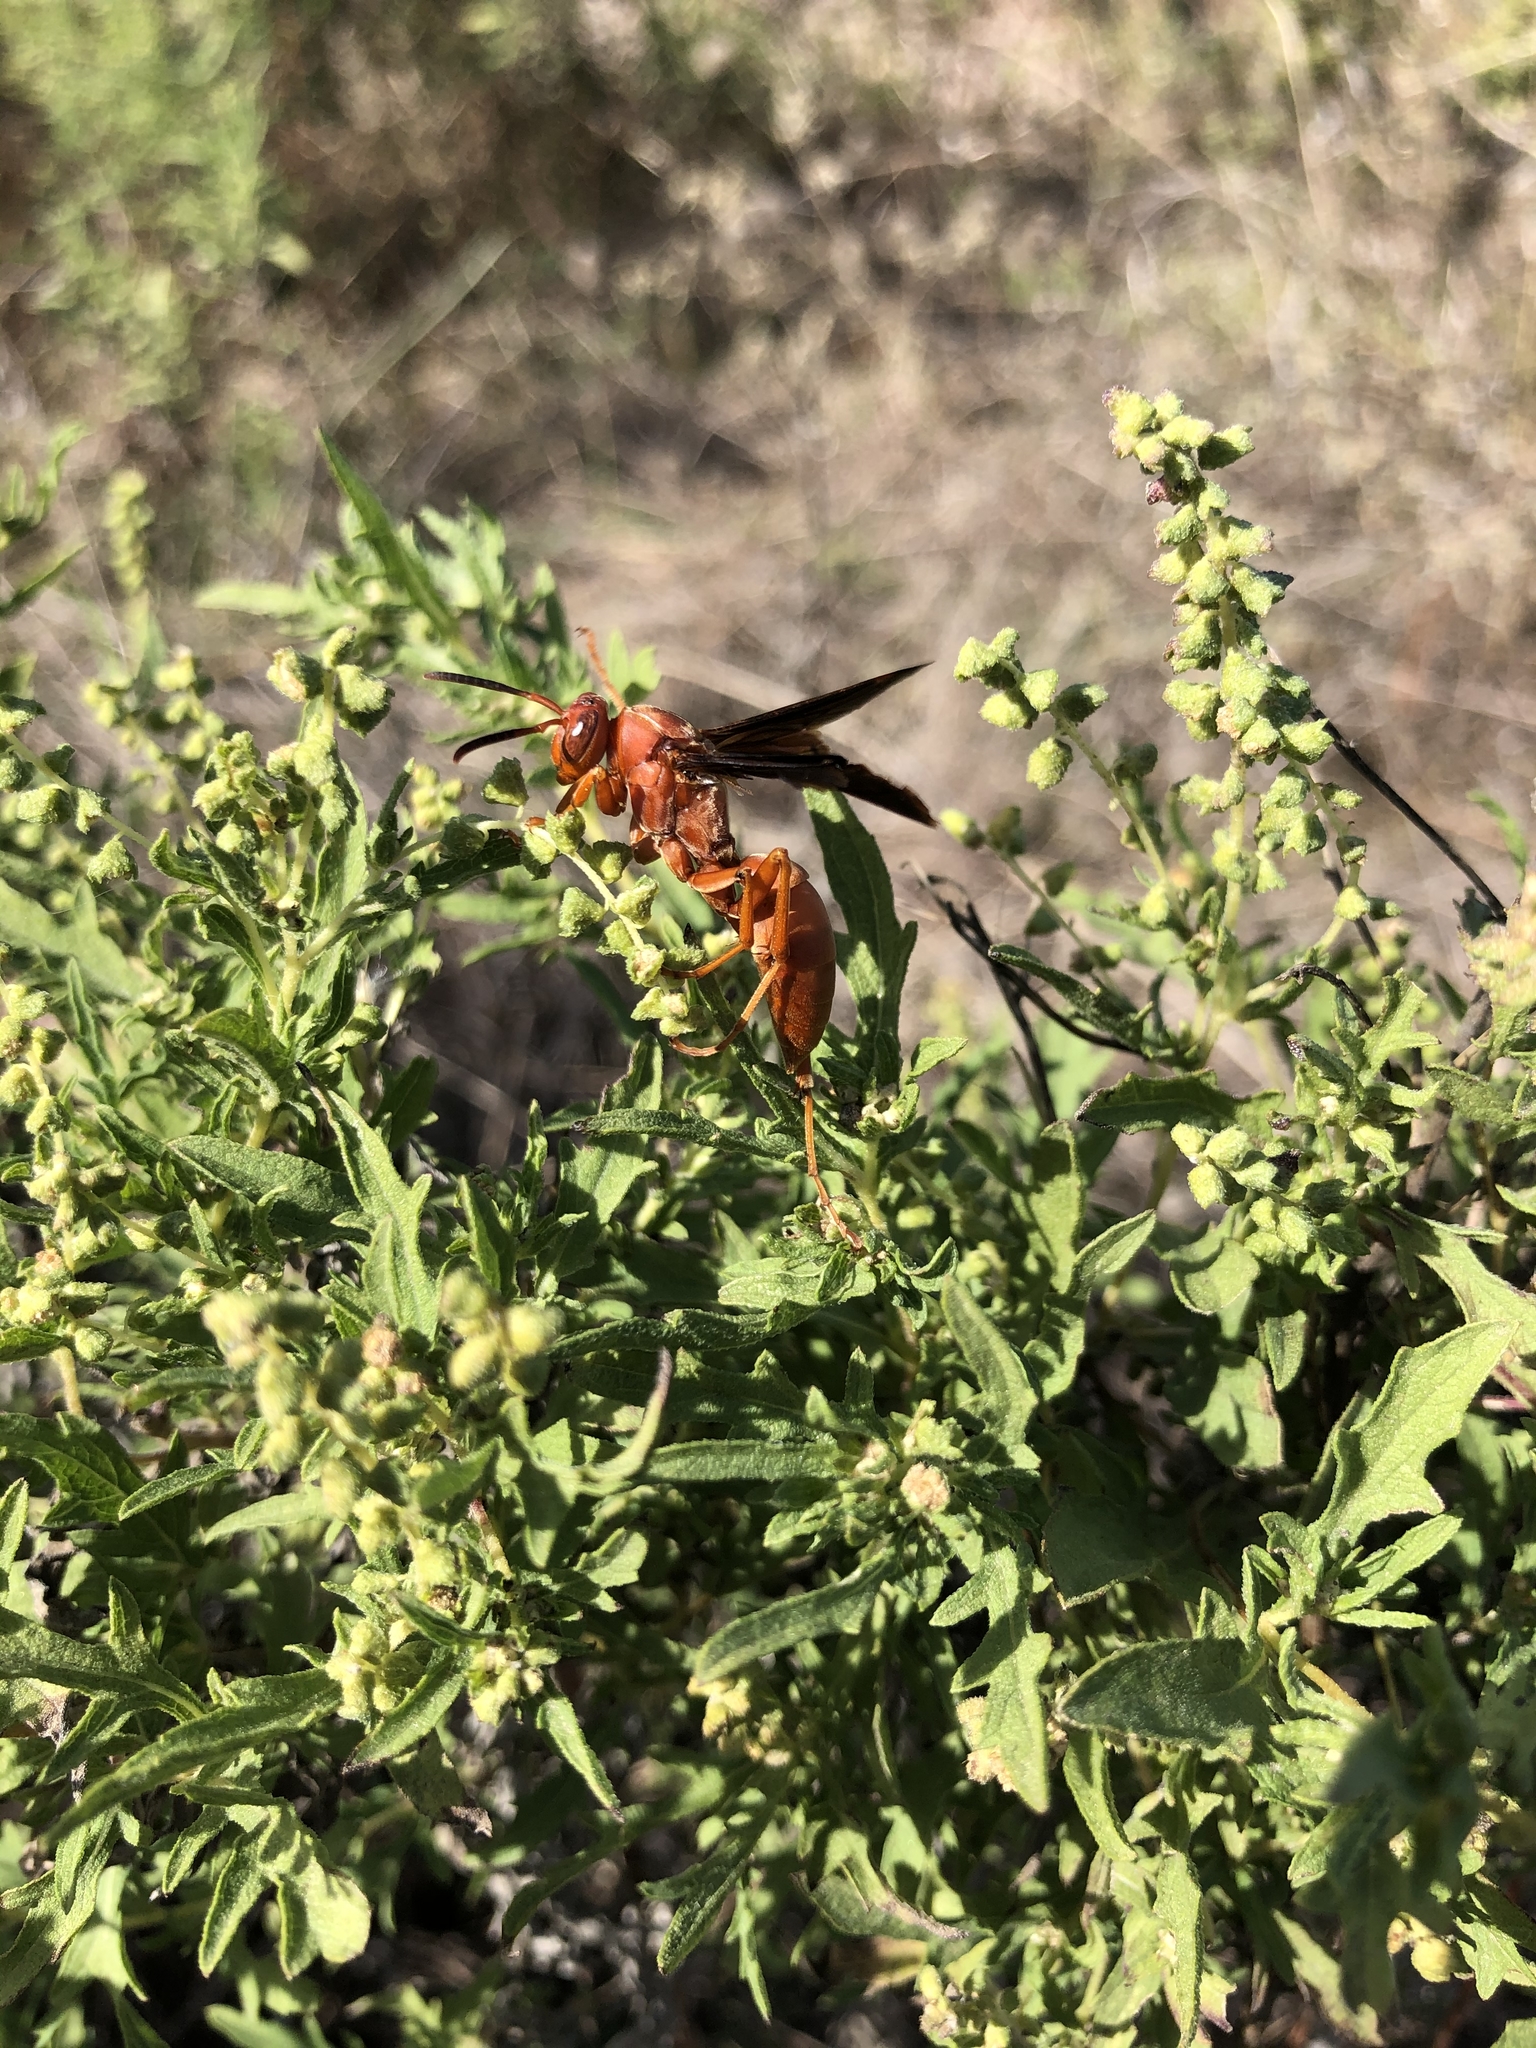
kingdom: Animalia
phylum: Arthropoda
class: Insecta
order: Hymenoptera
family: Vespidae
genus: Fuscopolistes
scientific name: Fuscopolistes
